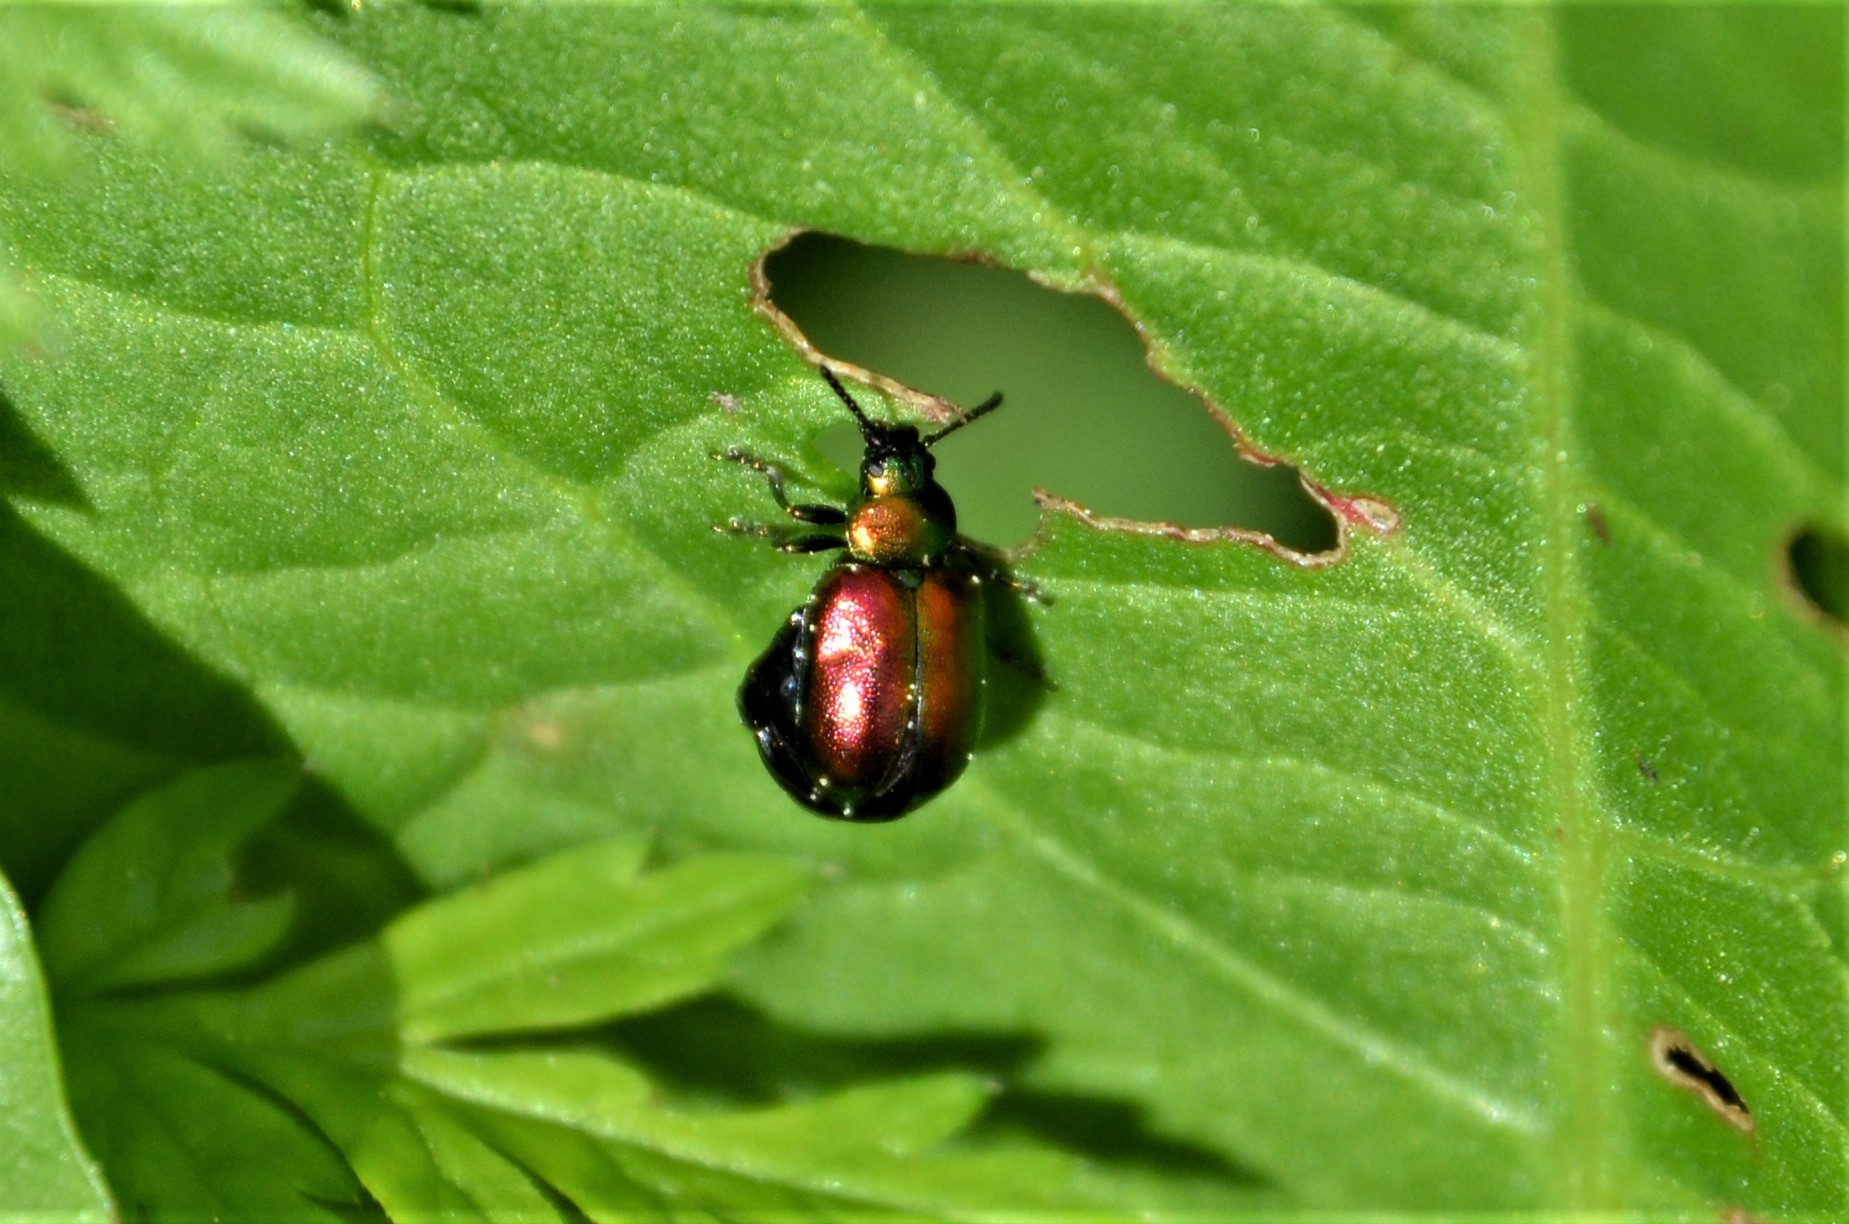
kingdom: Animalia
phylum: Arthropoda
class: Insecta
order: Coleoptera
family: Chrysomelidae
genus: Gastrophysa
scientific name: Gastrophysa viridula
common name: Green dock beetle
